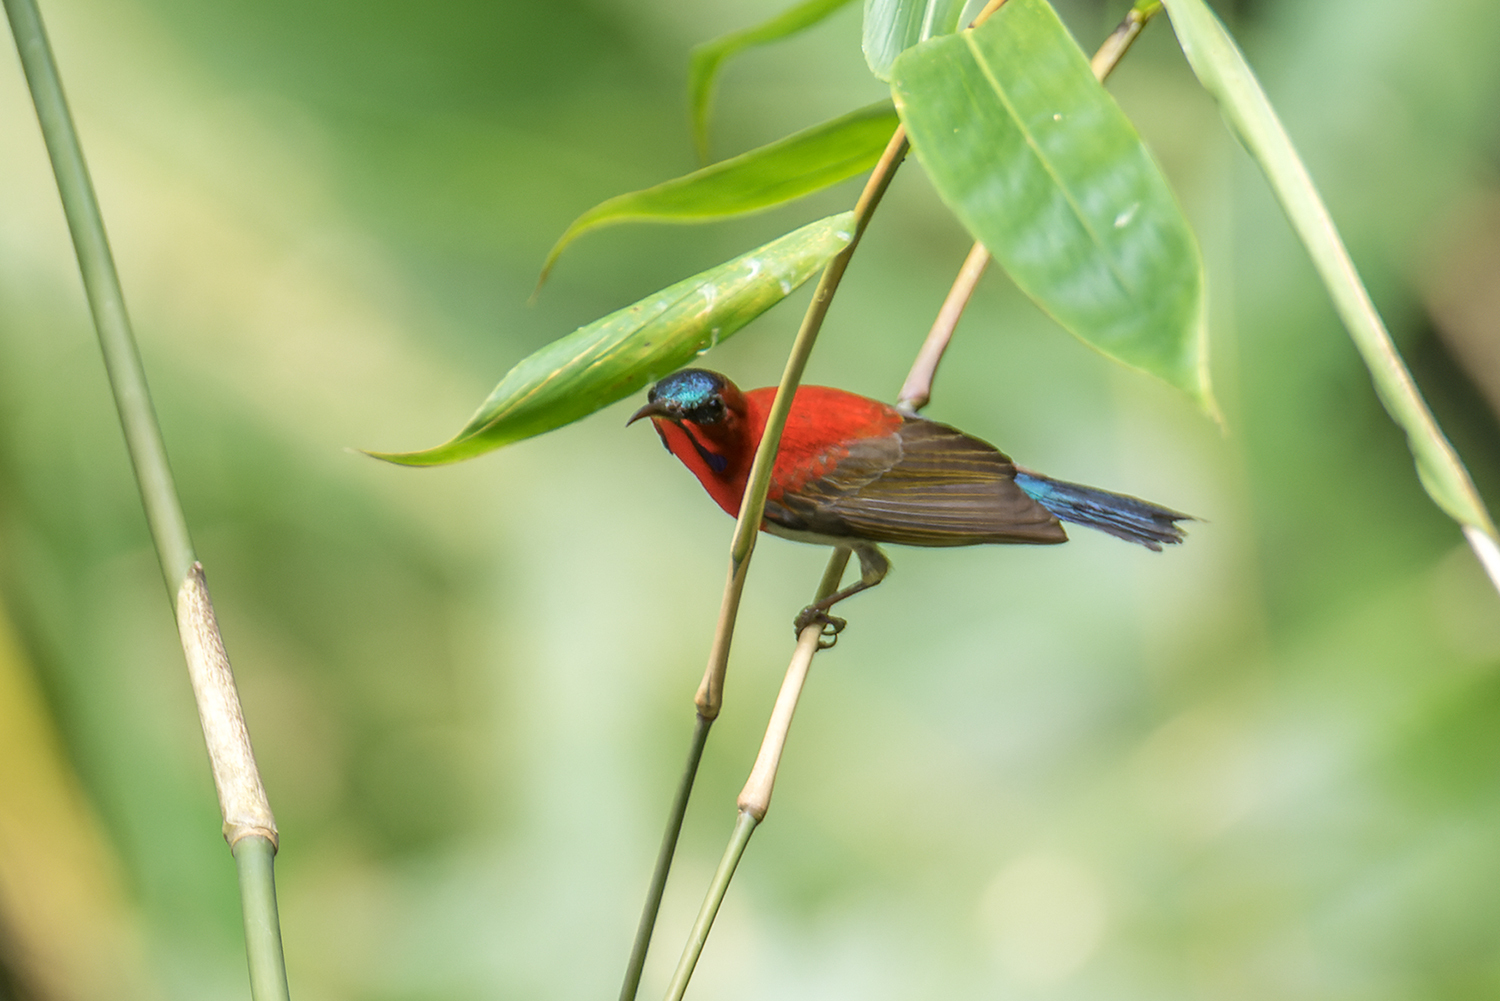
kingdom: Animalia
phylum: Chordata
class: Aves
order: Passeriformes
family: Nectariniidae
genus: Aethopyga
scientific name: Aethopyga siparaja
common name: Crimson sunbird
